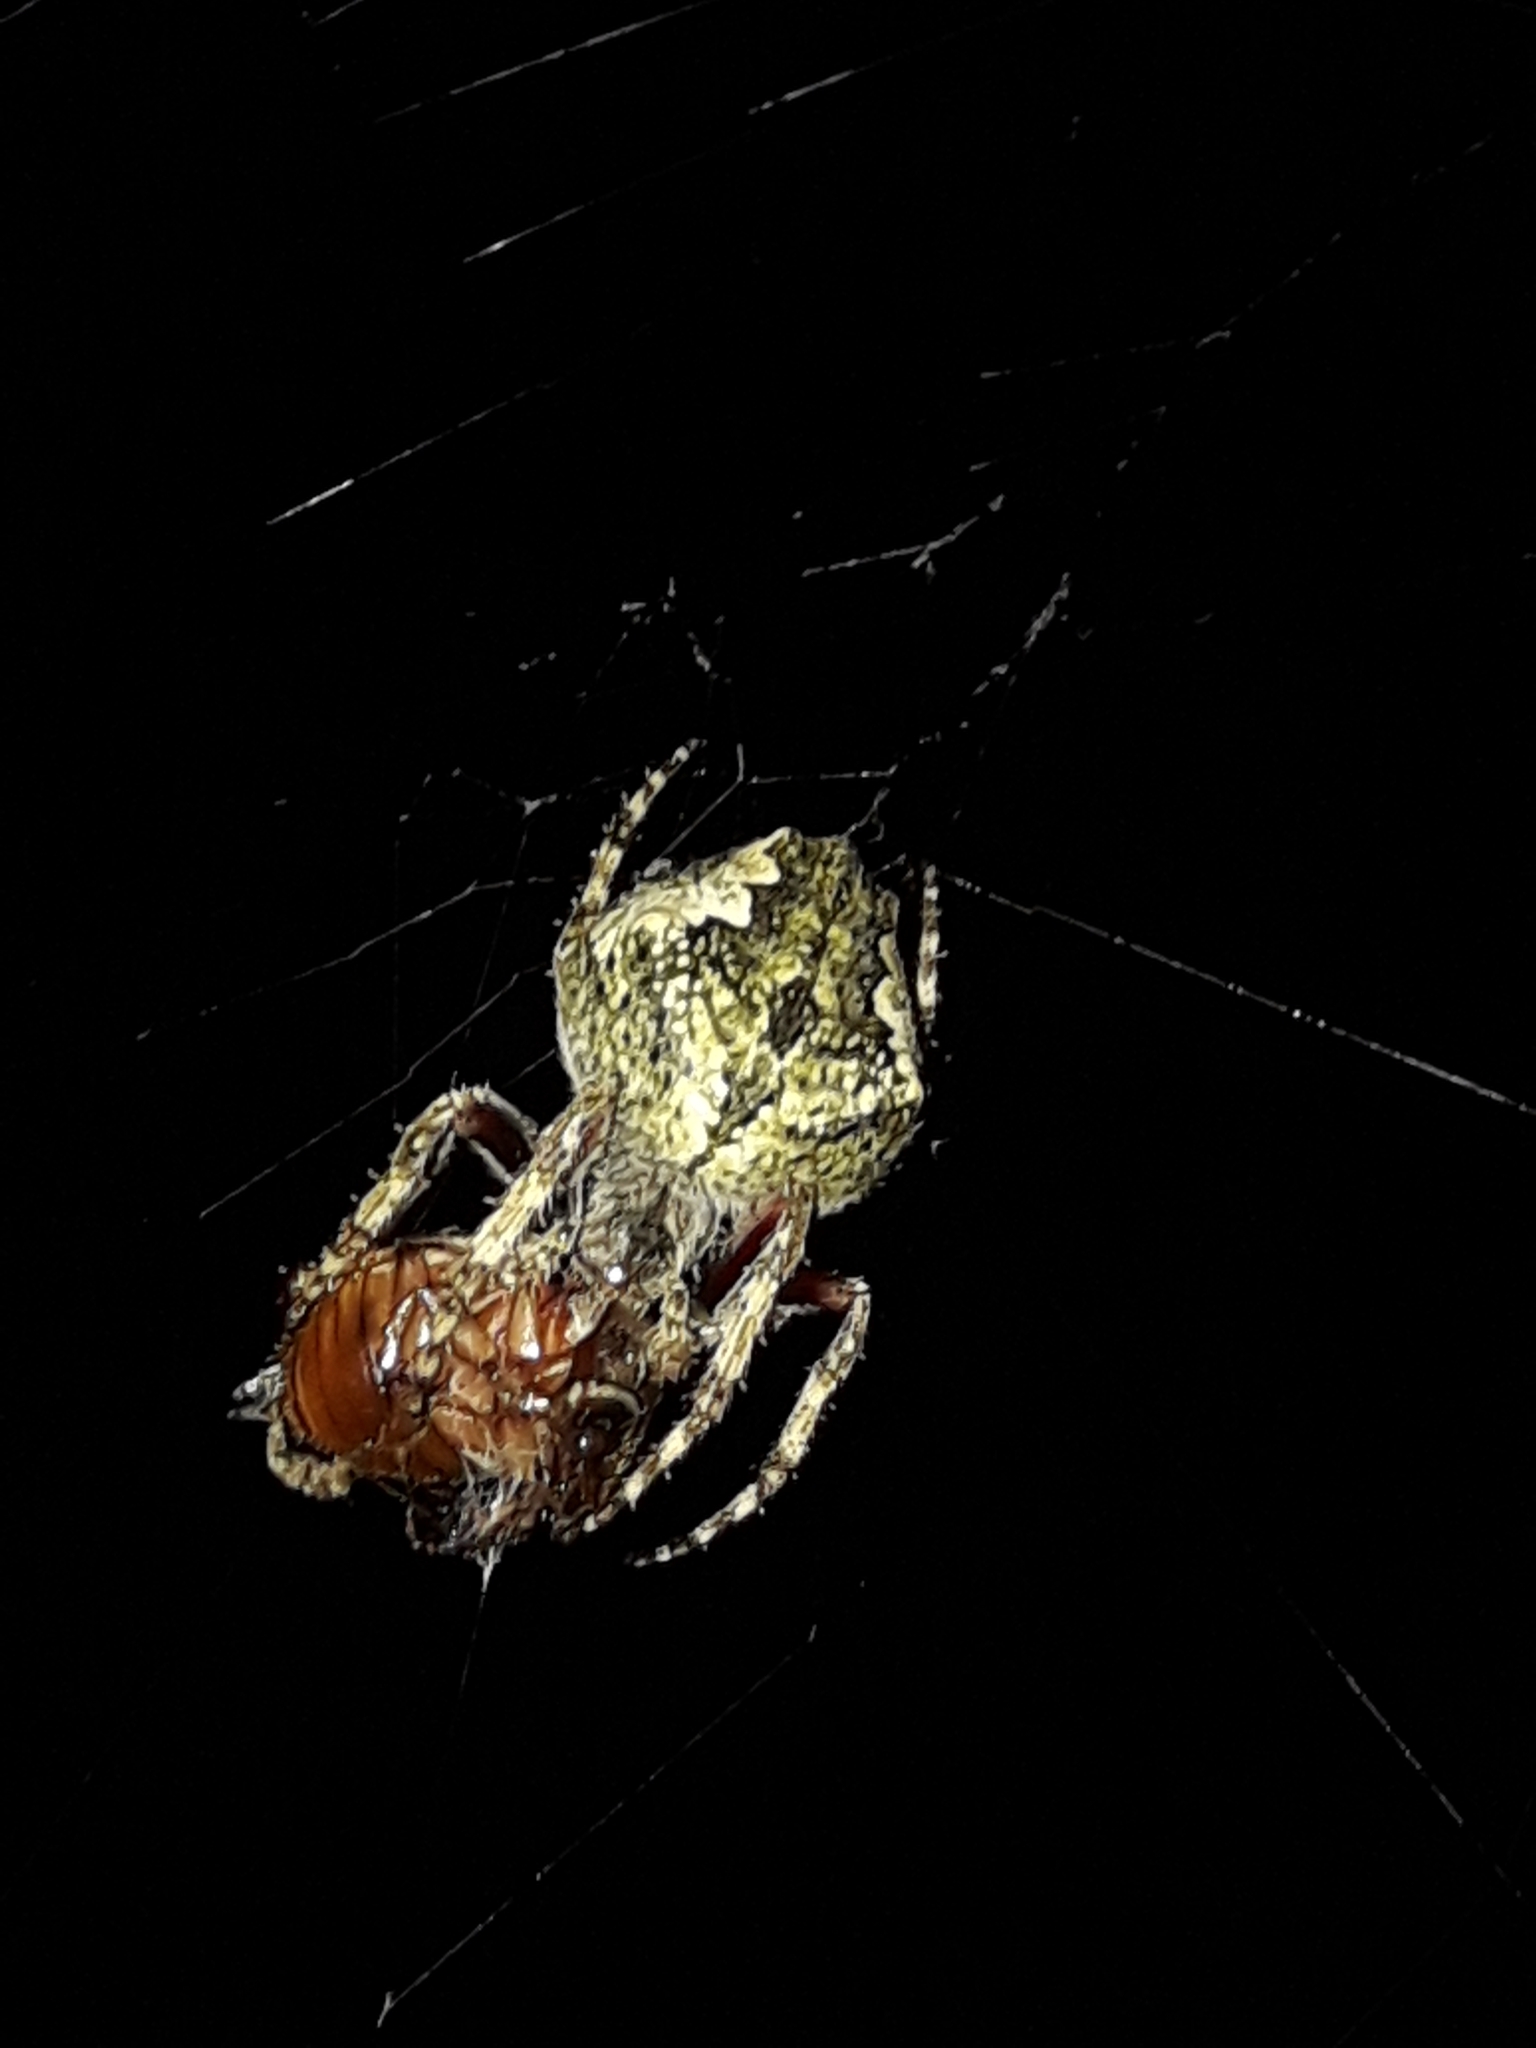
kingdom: Animalia
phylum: Arthropoda
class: Arachnida
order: Araneae
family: Araneidae
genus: Eriophora
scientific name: Eriophora pustulosa
